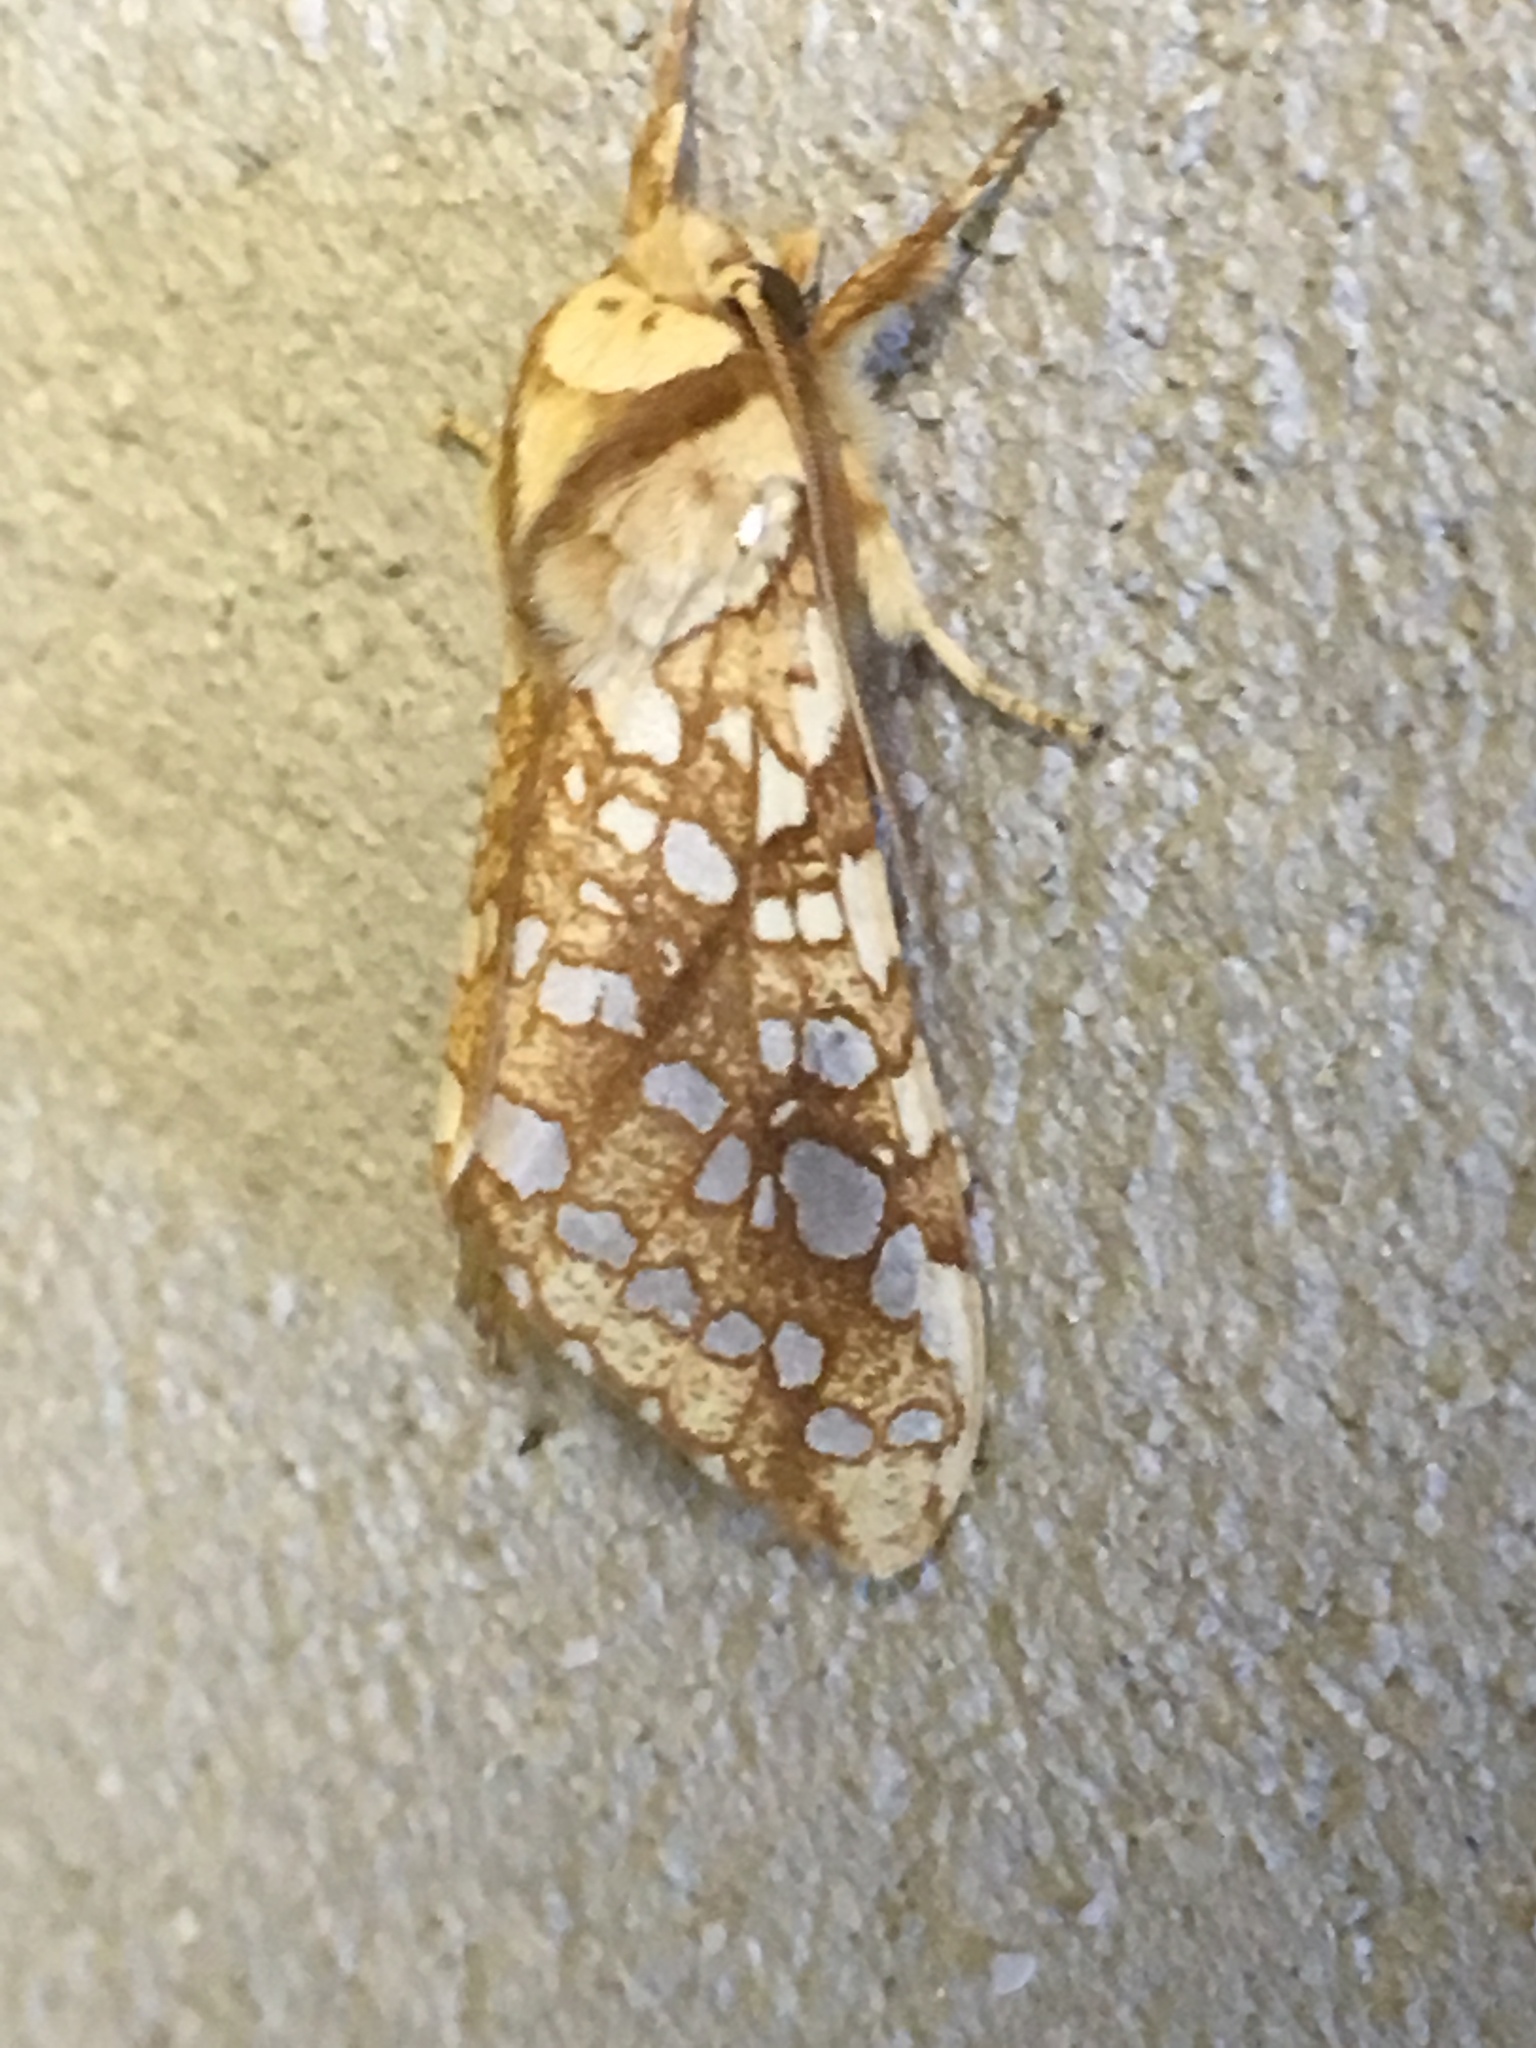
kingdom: Animalia
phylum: Arthropoda
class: Insecta
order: Lepidoptera
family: Erebidae
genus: Lophocampa
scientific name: Lophocampa caryae
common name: Hickory tussock moth
